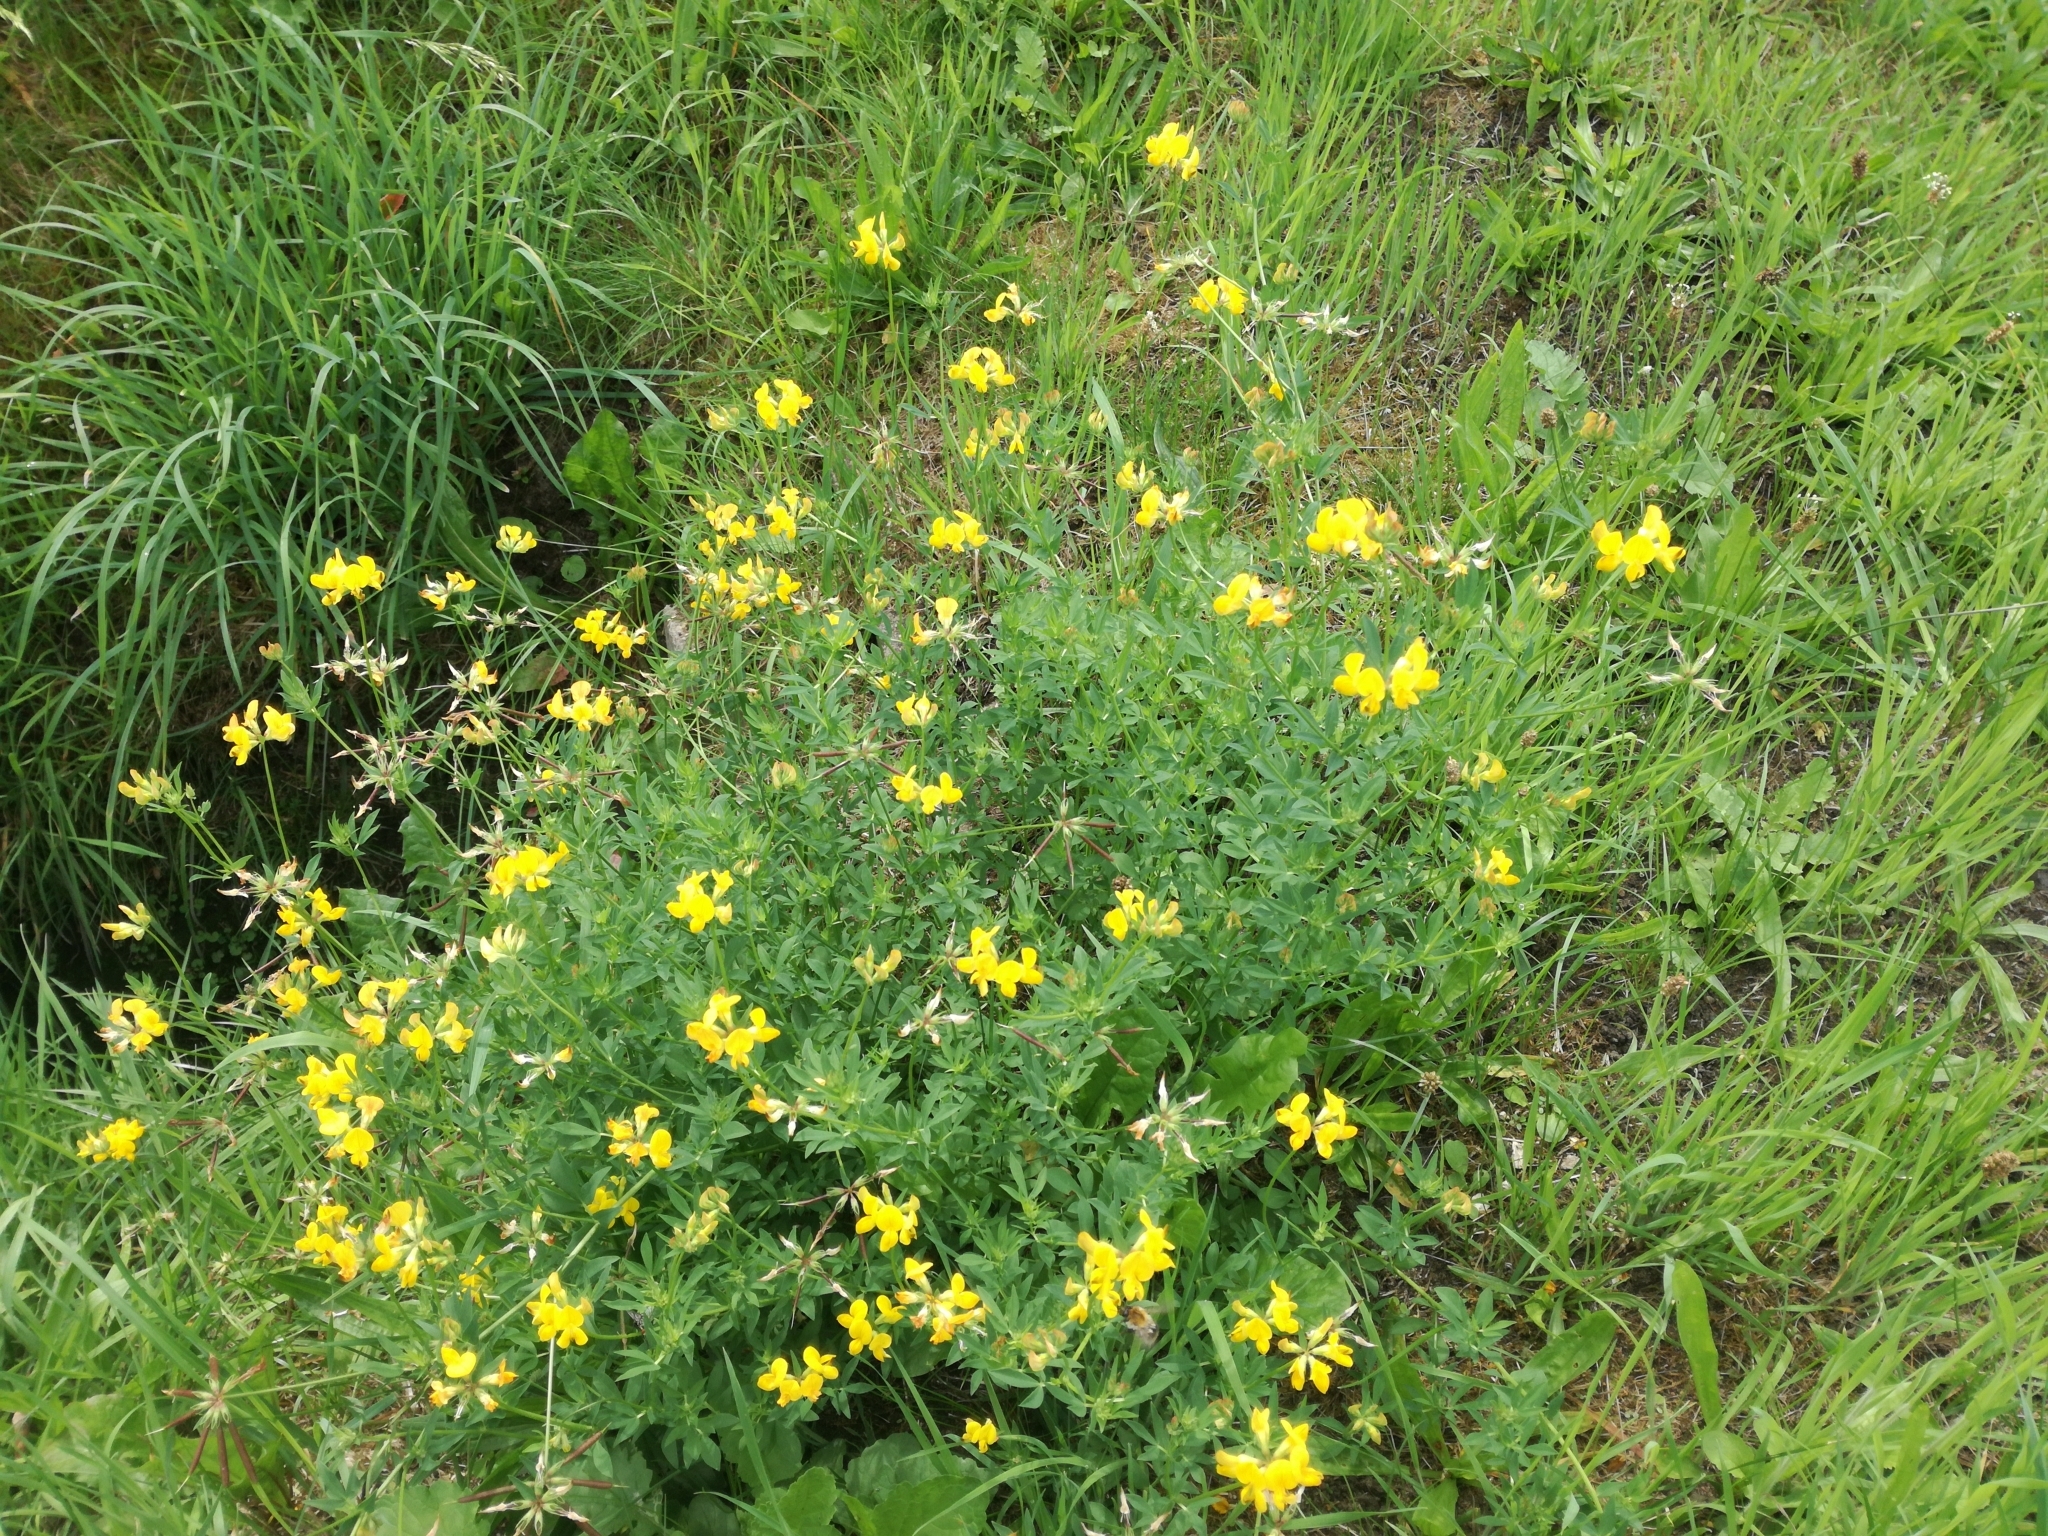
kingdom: Plantae
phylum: Tracheophyta
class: Magnoliopsida
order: Fabales
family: Fabaceae
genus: Lotus
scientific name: Lotus corniculatus
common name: Common bird's-foot-trefoil
